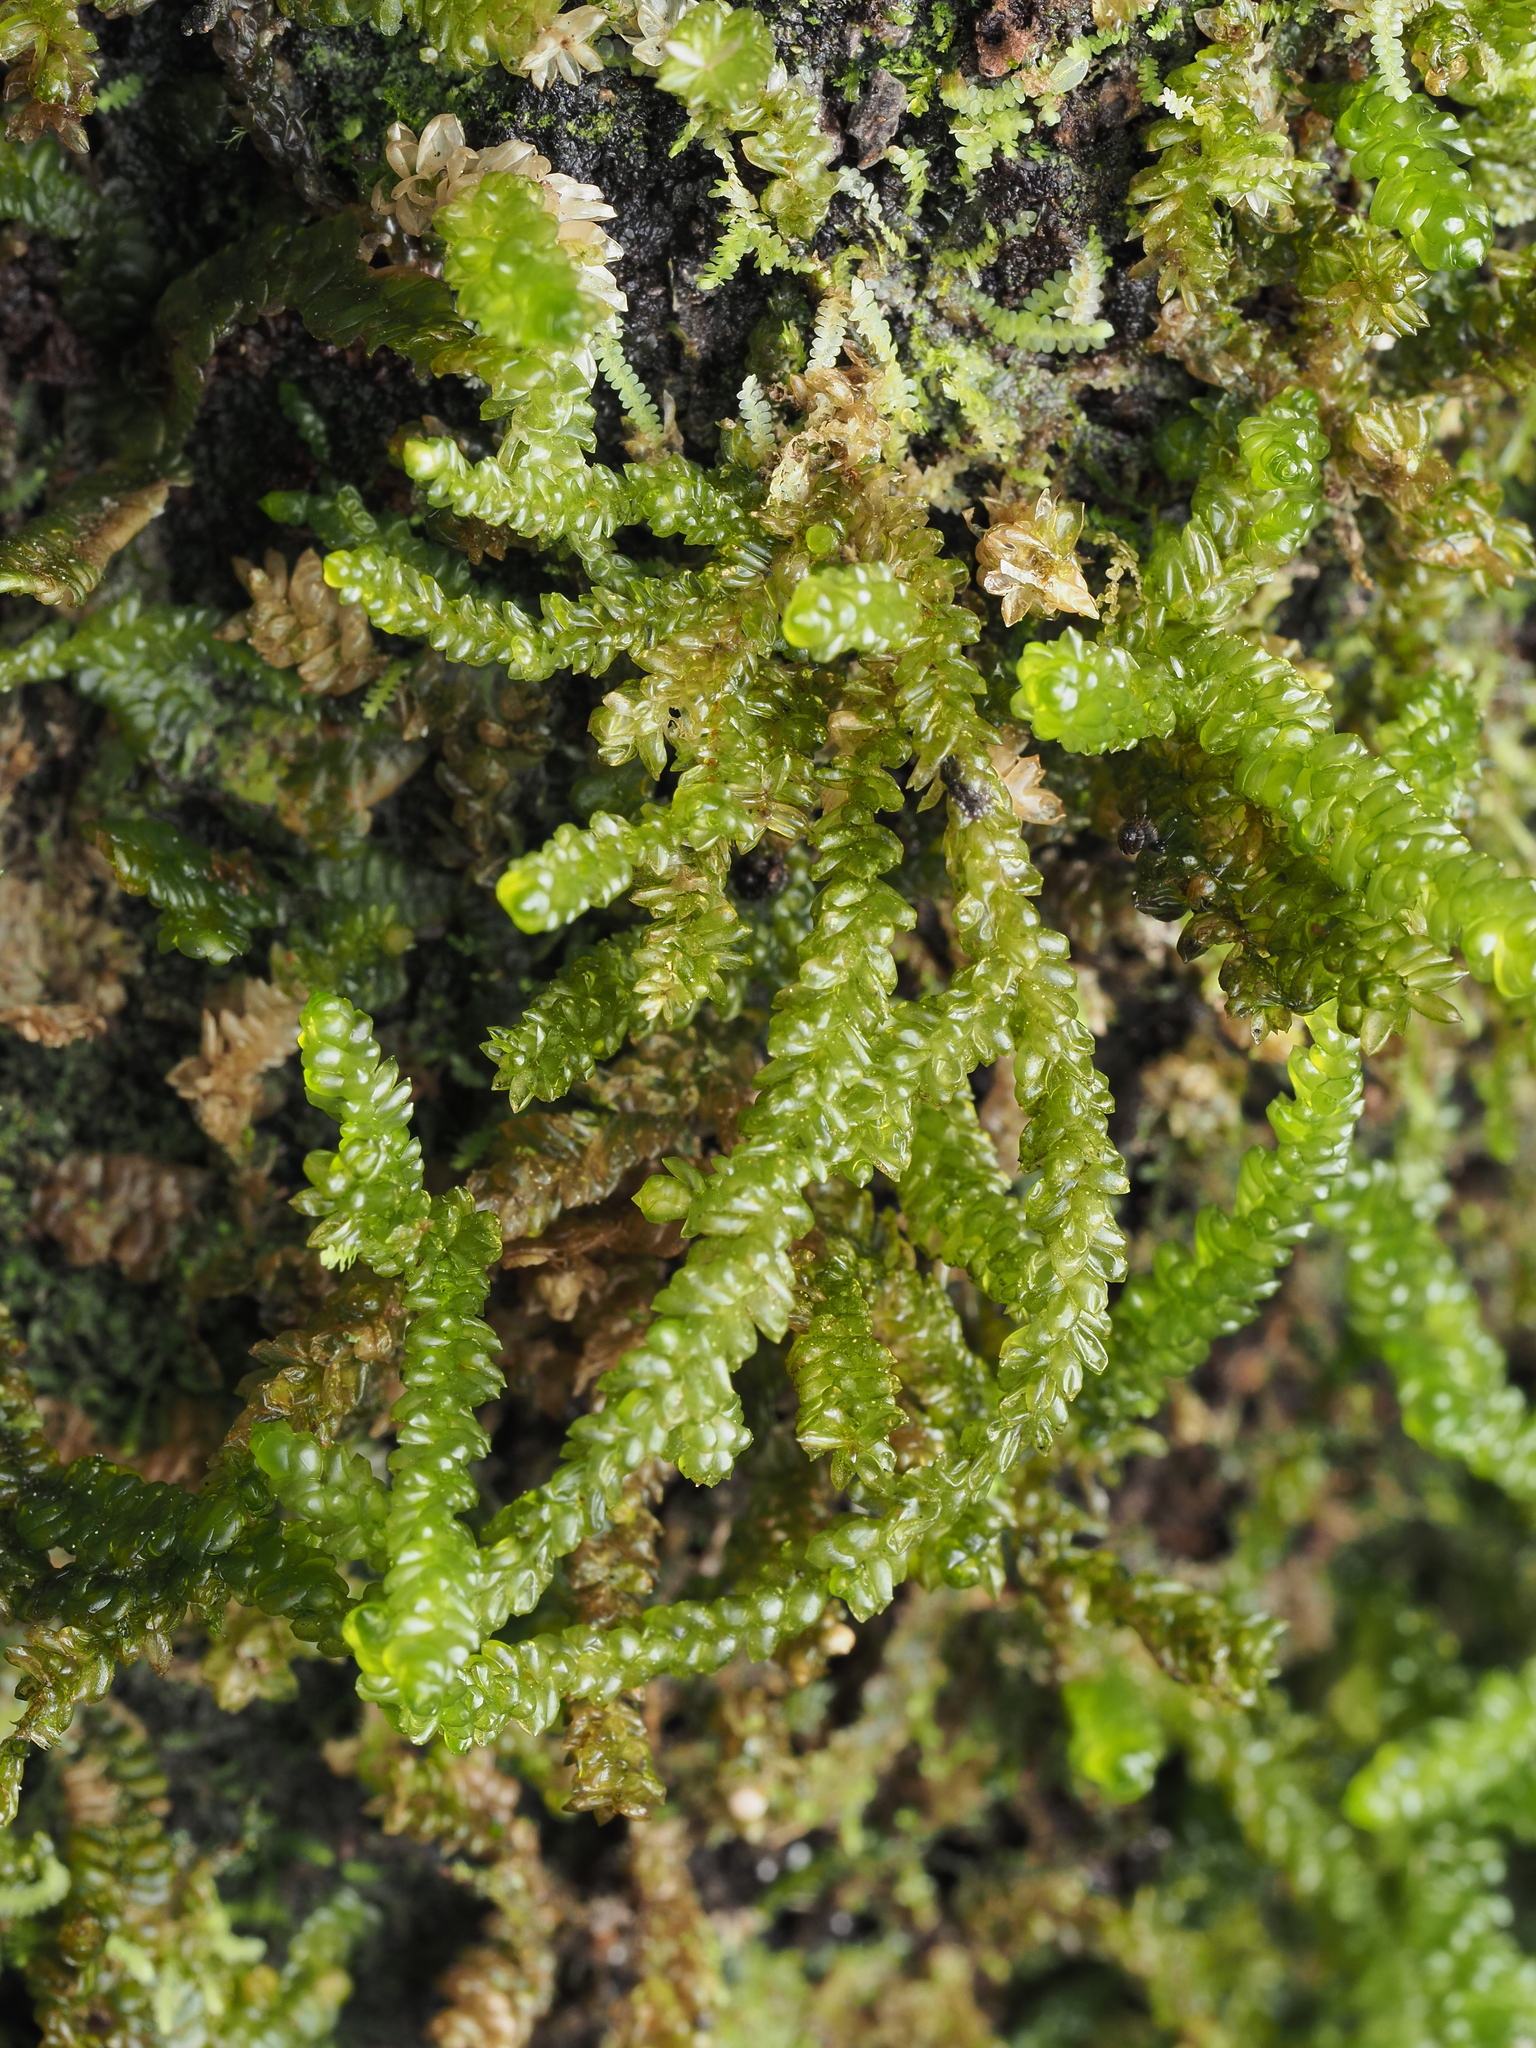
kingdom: Plantae
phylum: Bryophyta
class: Bryopsida
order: Hypnales
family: Lembophyllaceae
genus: Weymouthia
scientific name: Weymouthia cochlearifolia
